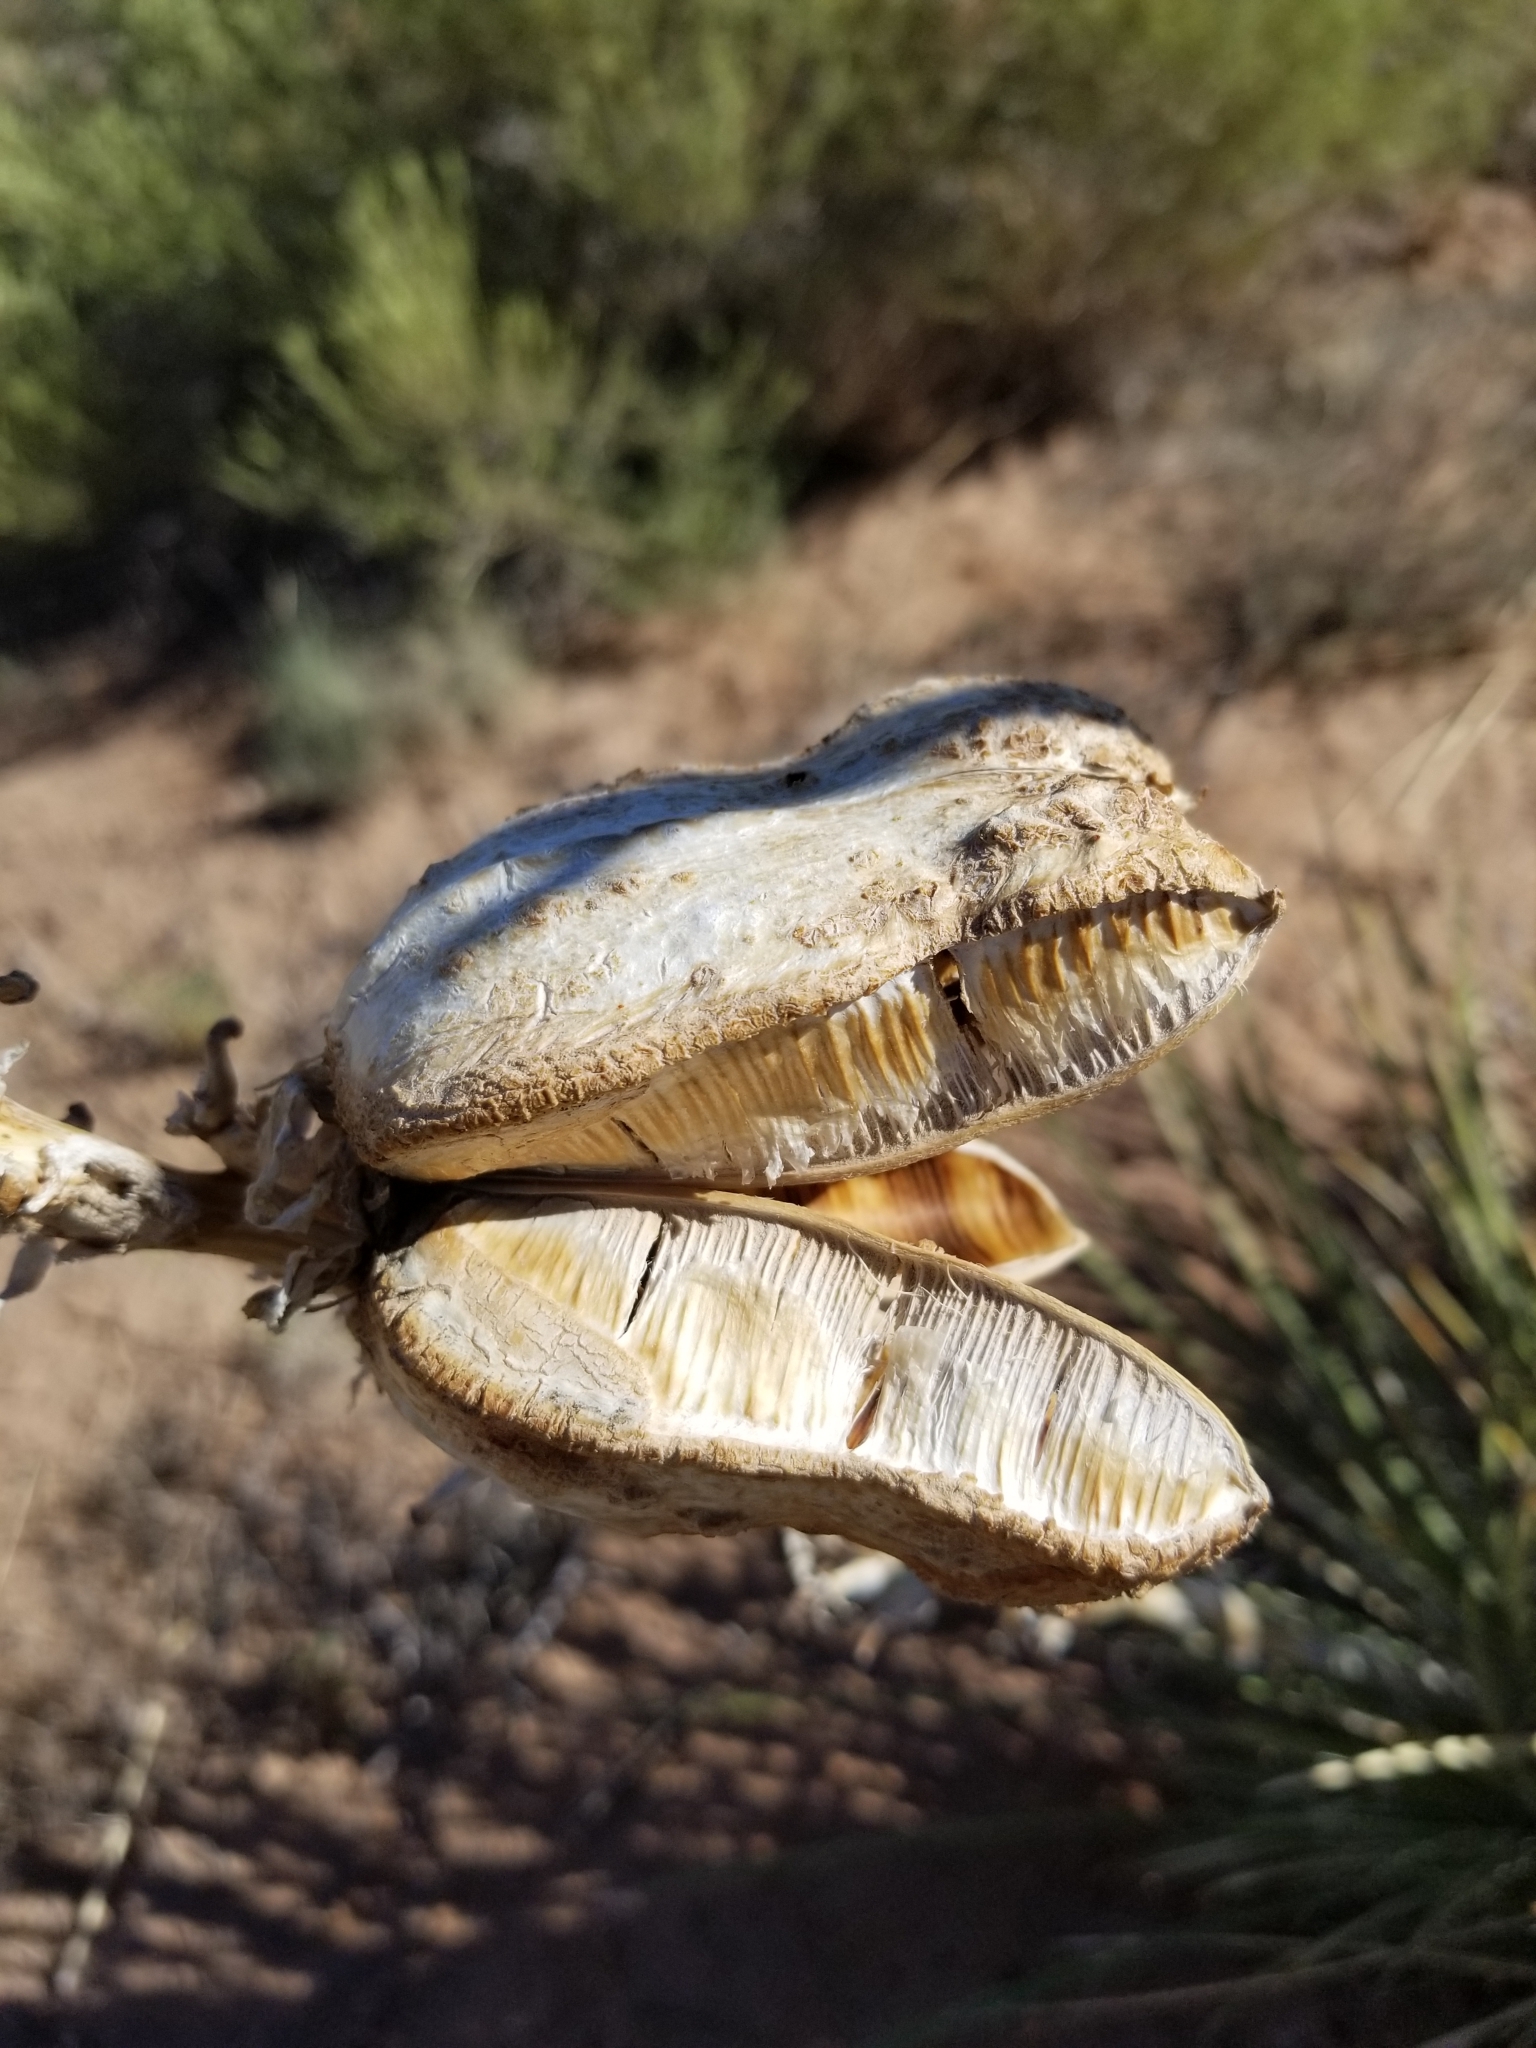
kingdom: Plantae
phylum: Tracheophyta
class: Liliopsida
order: Asparagales
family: Asparagaceae
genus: Yucca
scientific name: Yucca angustissima
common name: Narrowleaf yucca
